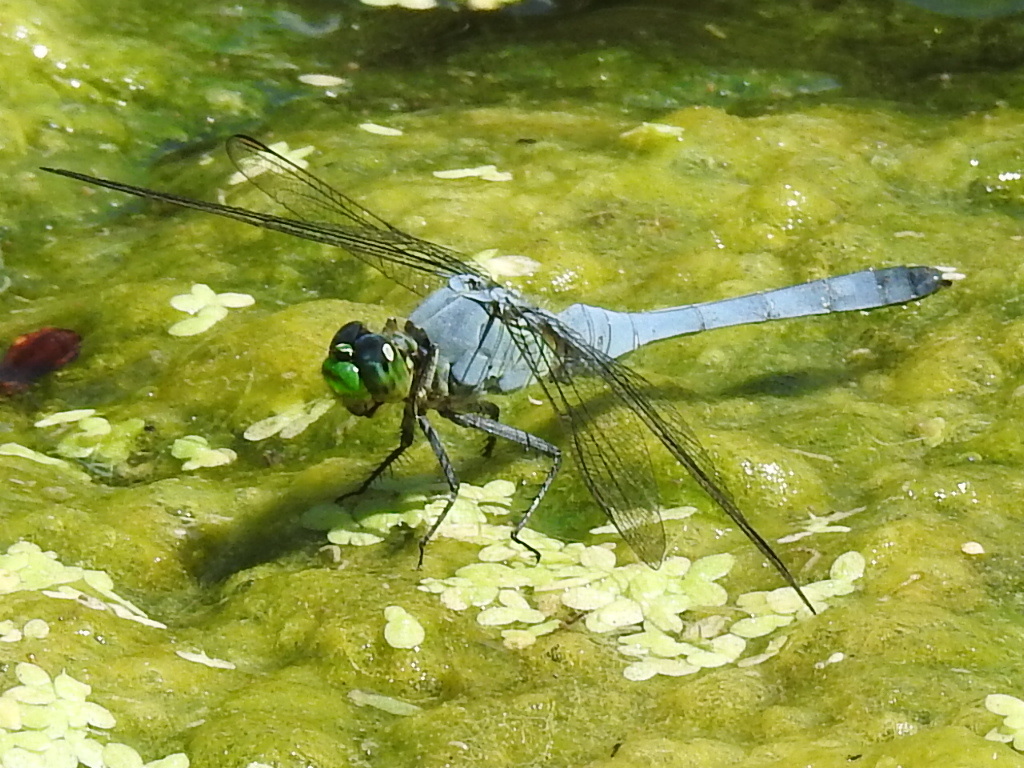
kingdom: Animalia
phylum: Arthropoda
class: Insecta
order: Odonata
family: Libellulidae
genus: Erythemis
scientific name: Erythemis simplicicollis
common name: Eastern pondhawk
